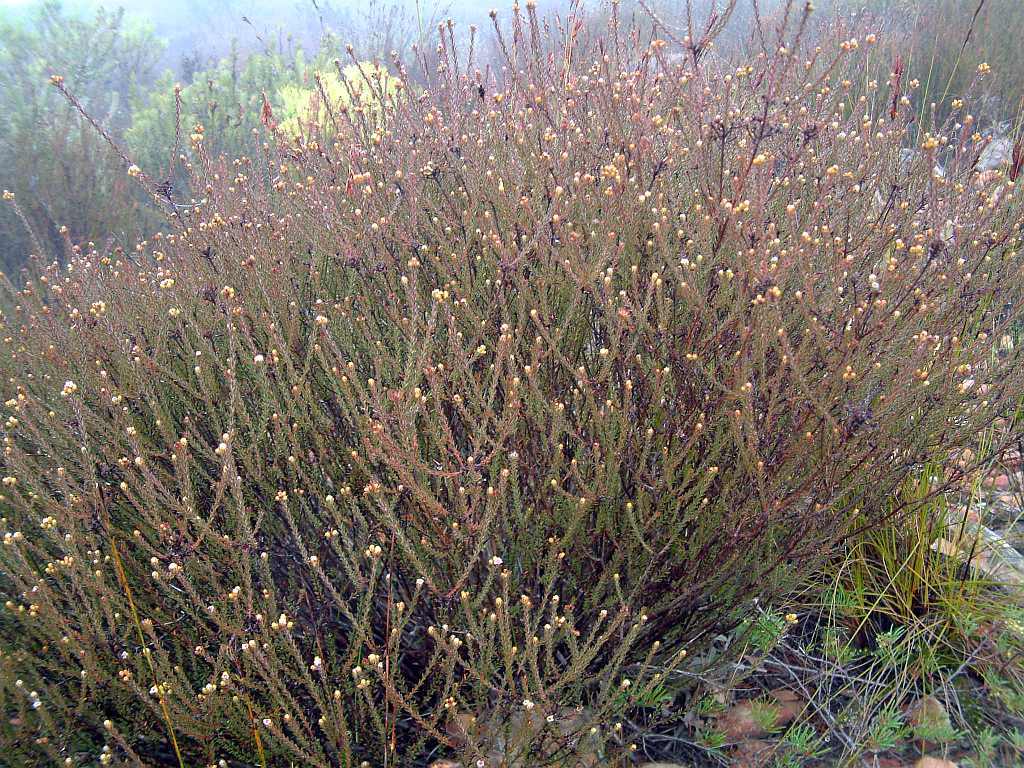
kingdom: Plantae
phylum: Tracheophyta
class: Magnoliopsida
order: Bruniales
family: Bruniaceae
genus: Staavia
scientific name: Staavia capitella
